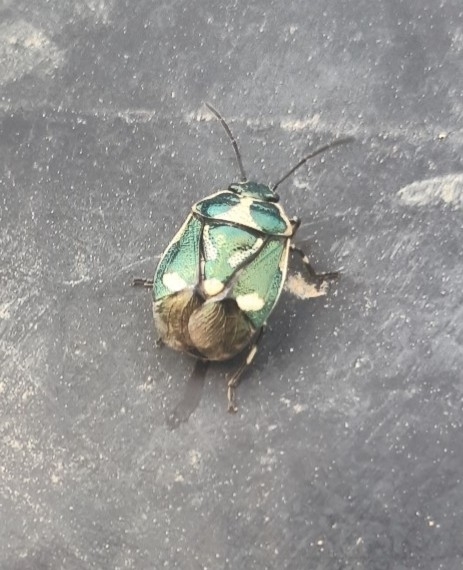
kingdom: Animalia
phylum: Arthropoda
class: Insecta
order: Hemiptera
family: Pentatomidae
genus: Eurydema
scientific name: Eurydema oleracea
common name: Cabbage bug
